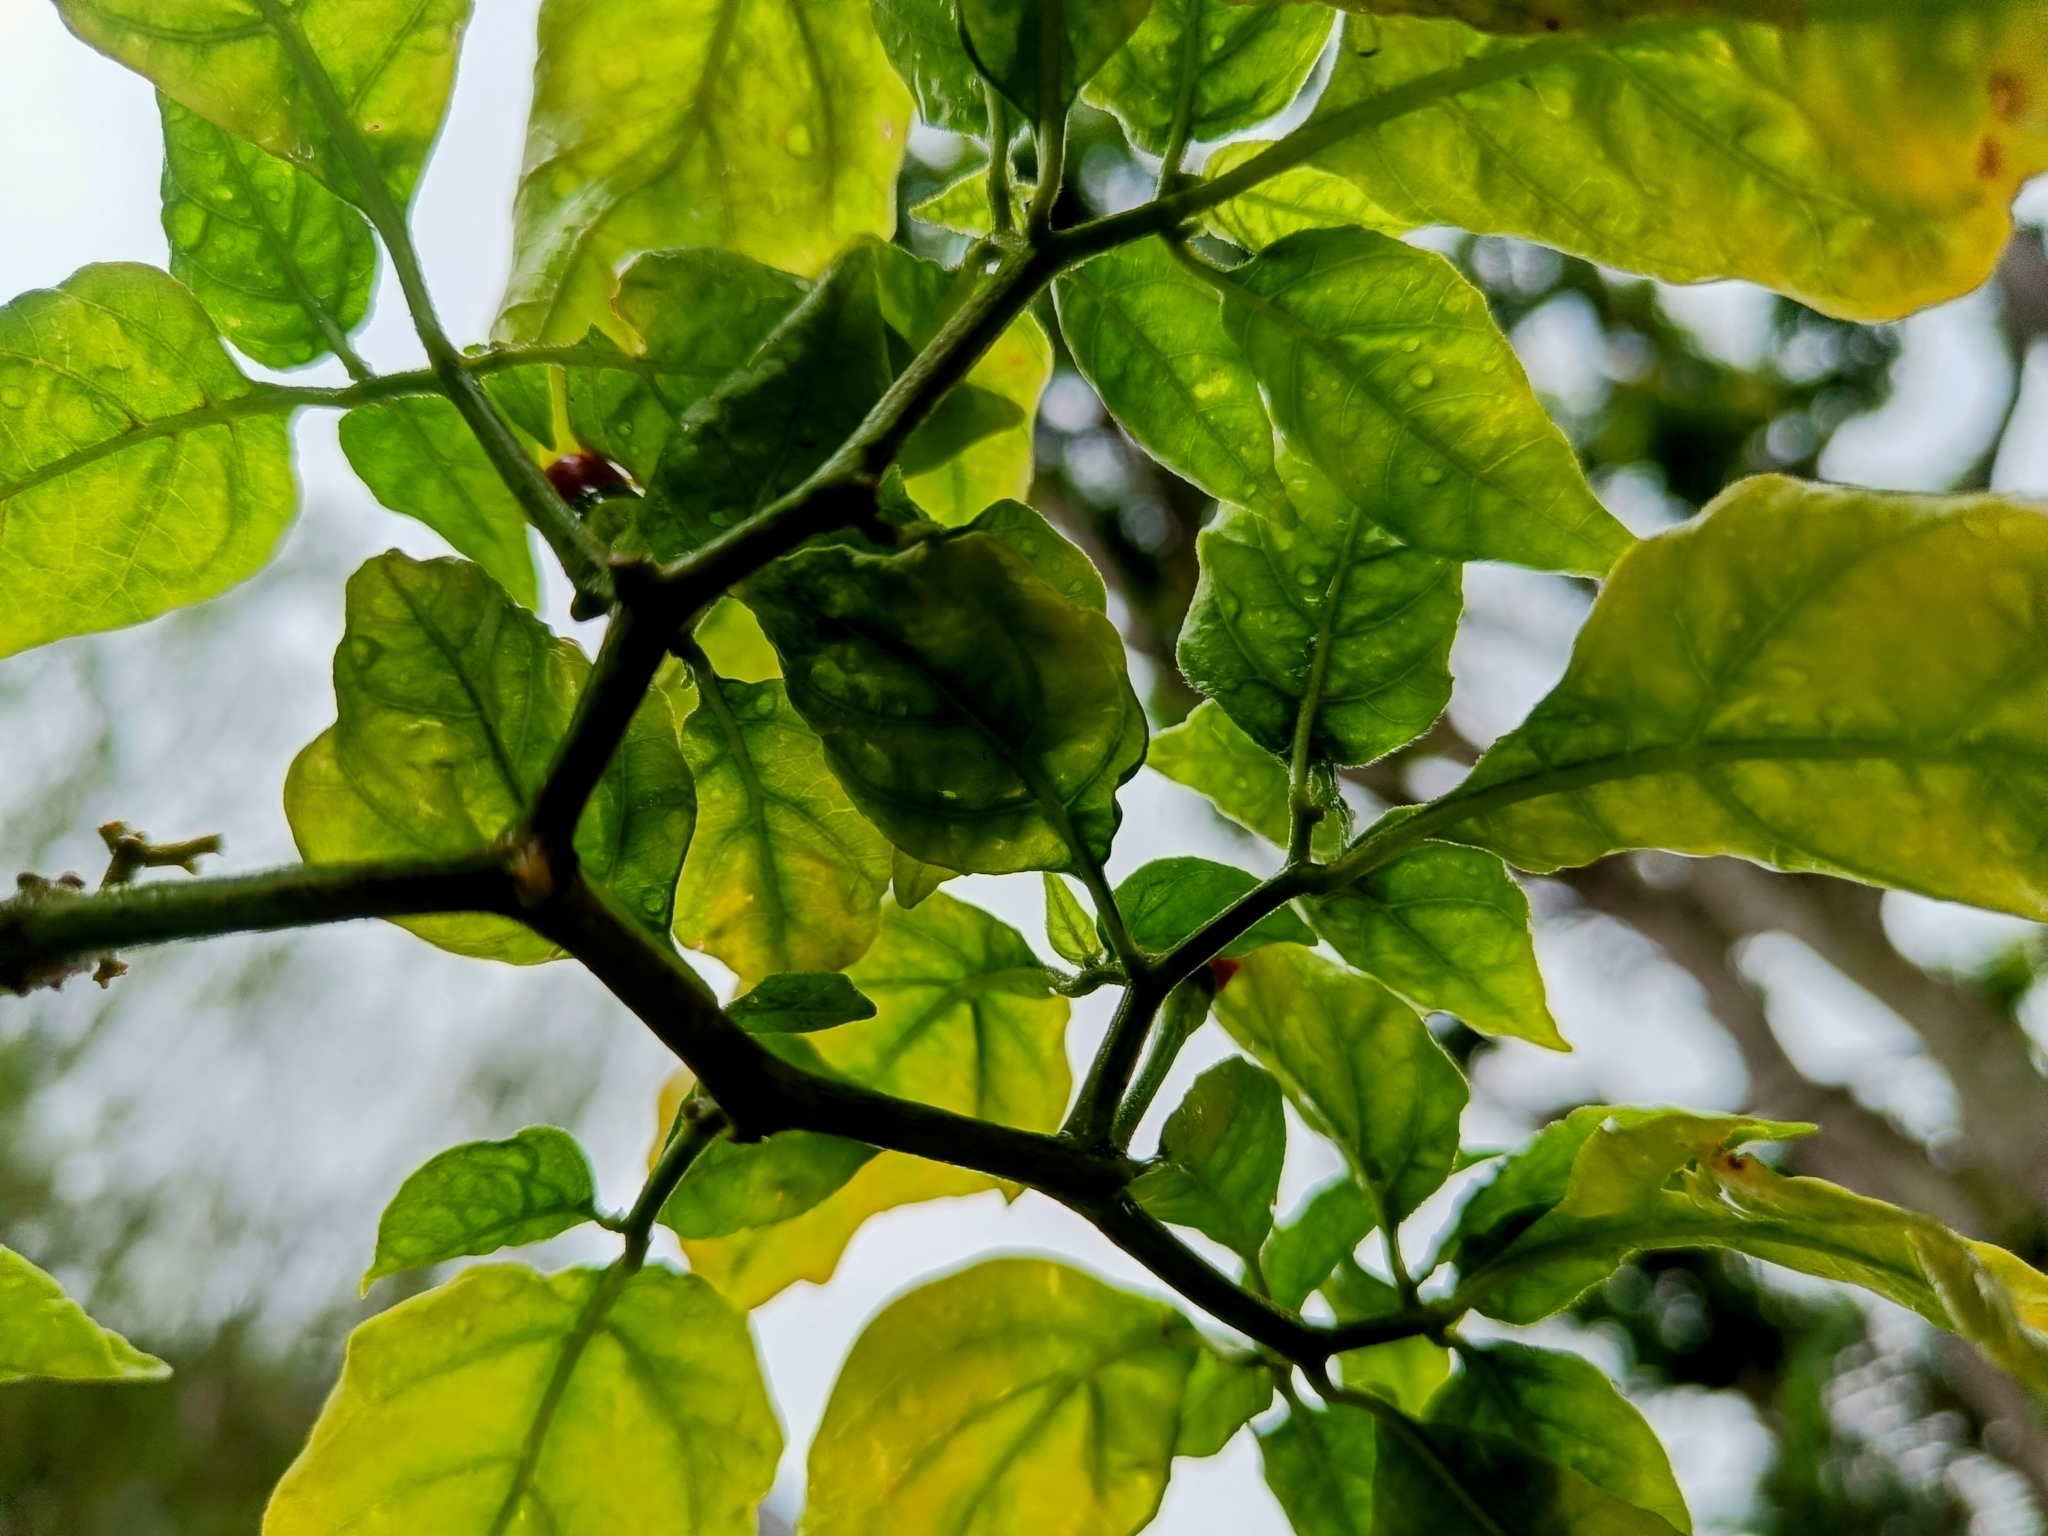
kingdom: Plantae
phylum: Tracheophyta
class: Magnoliopsida
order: Solanales
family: Solanaceae
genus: Capsicum
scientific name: Capsicum annuum
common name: Sweet pepper
